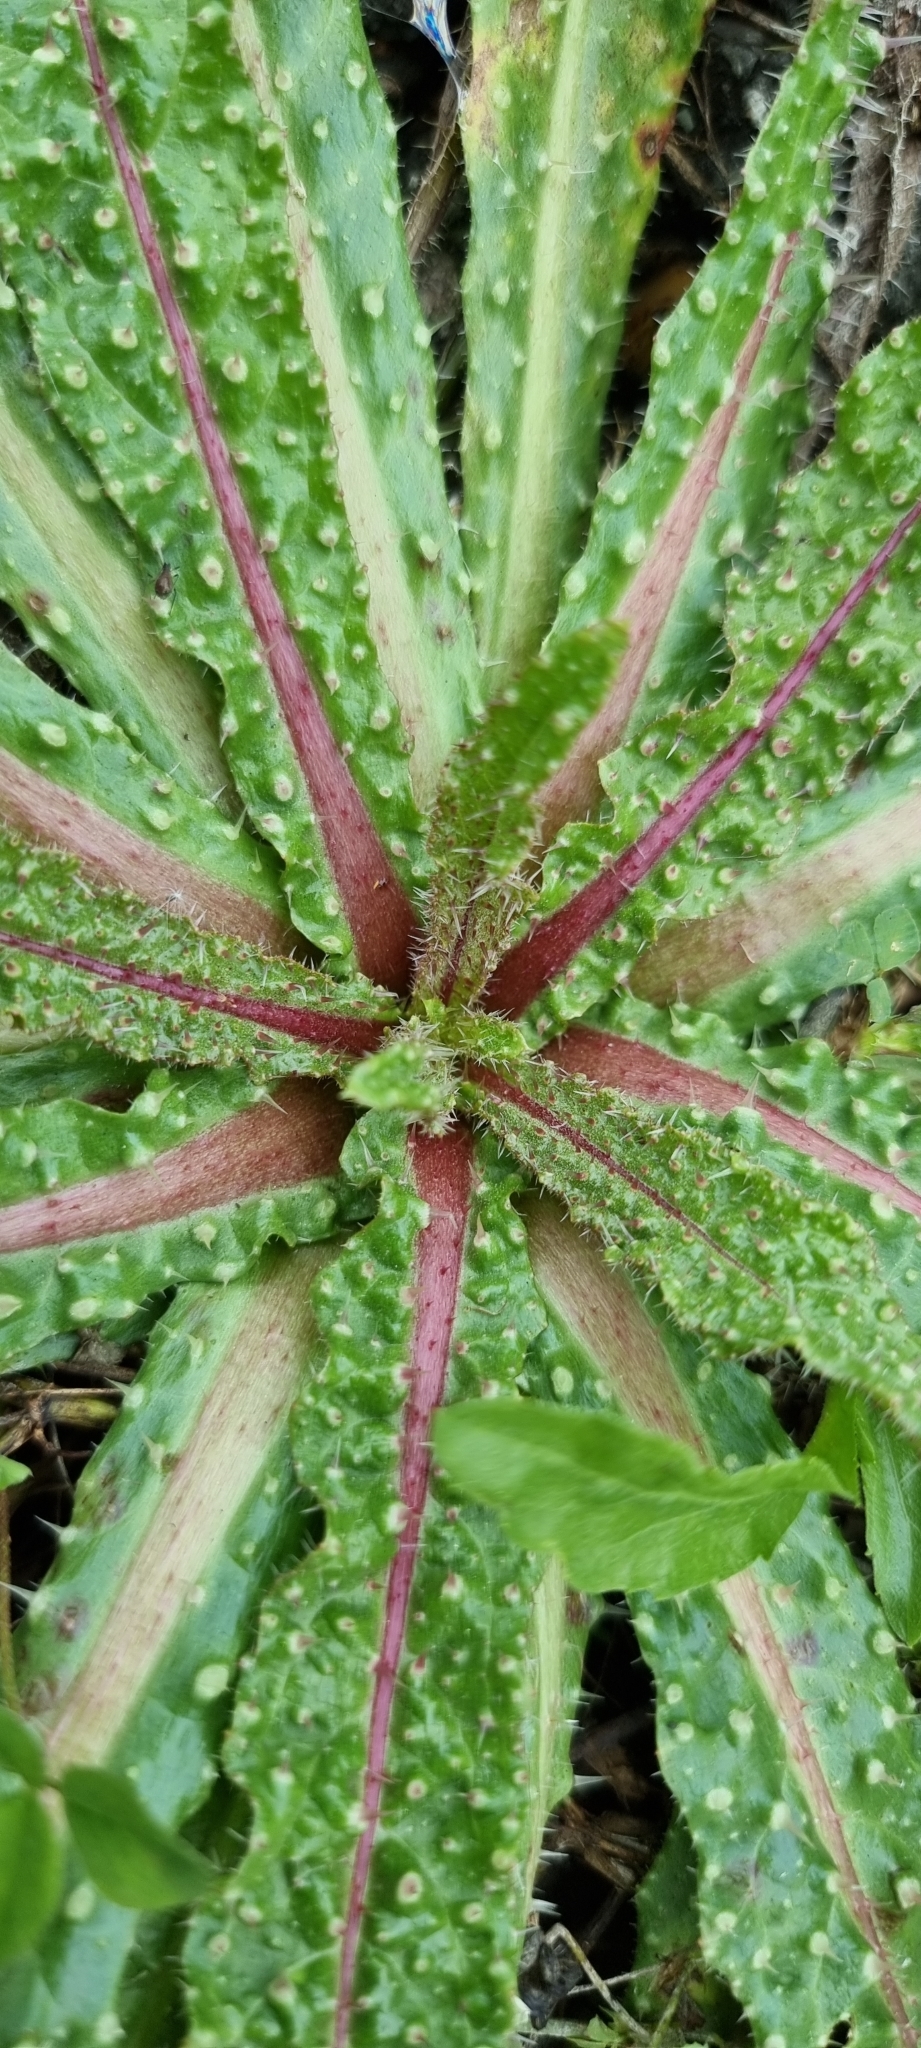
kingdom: Plantae
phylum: Tracheophyta
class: Magnoliopsida
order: Asterales
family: Asteraceae
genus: Helminthotheca
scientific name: Helminthotheca echioides
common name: Ox-tongue
